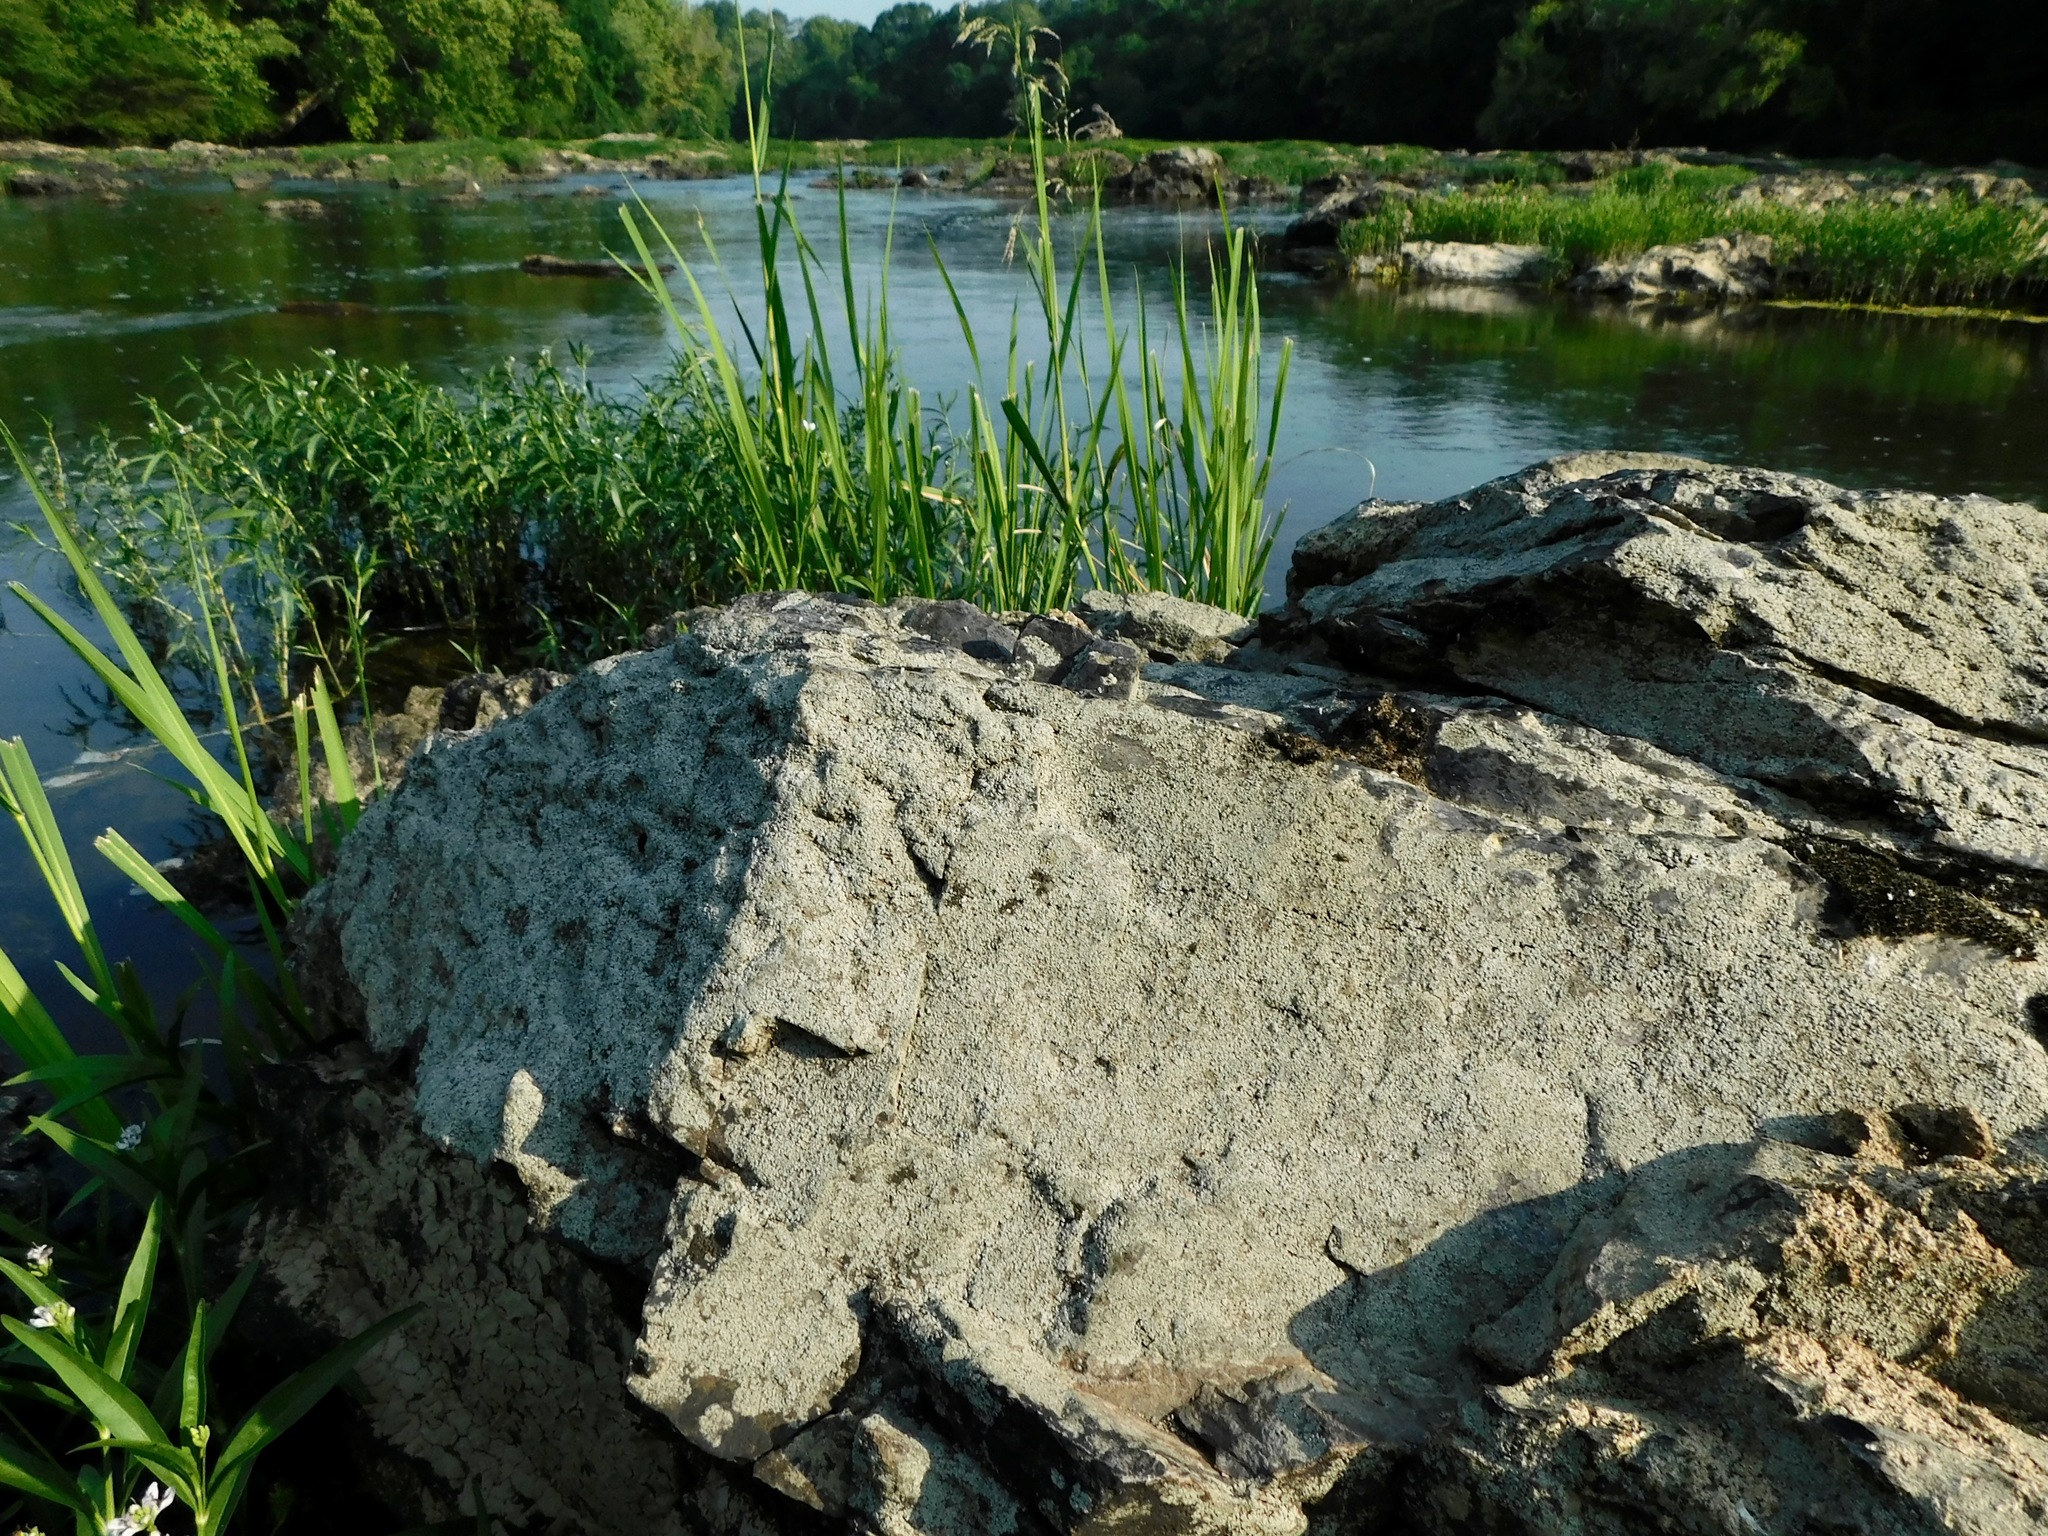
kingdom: Fungi
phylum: Ascomycota
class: Lecanoromycetes
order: Pertusariales
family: Megasporaceae
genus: Aspicilia
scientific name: Aspicilia verrucigera
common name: Warty sunken disk lichen
